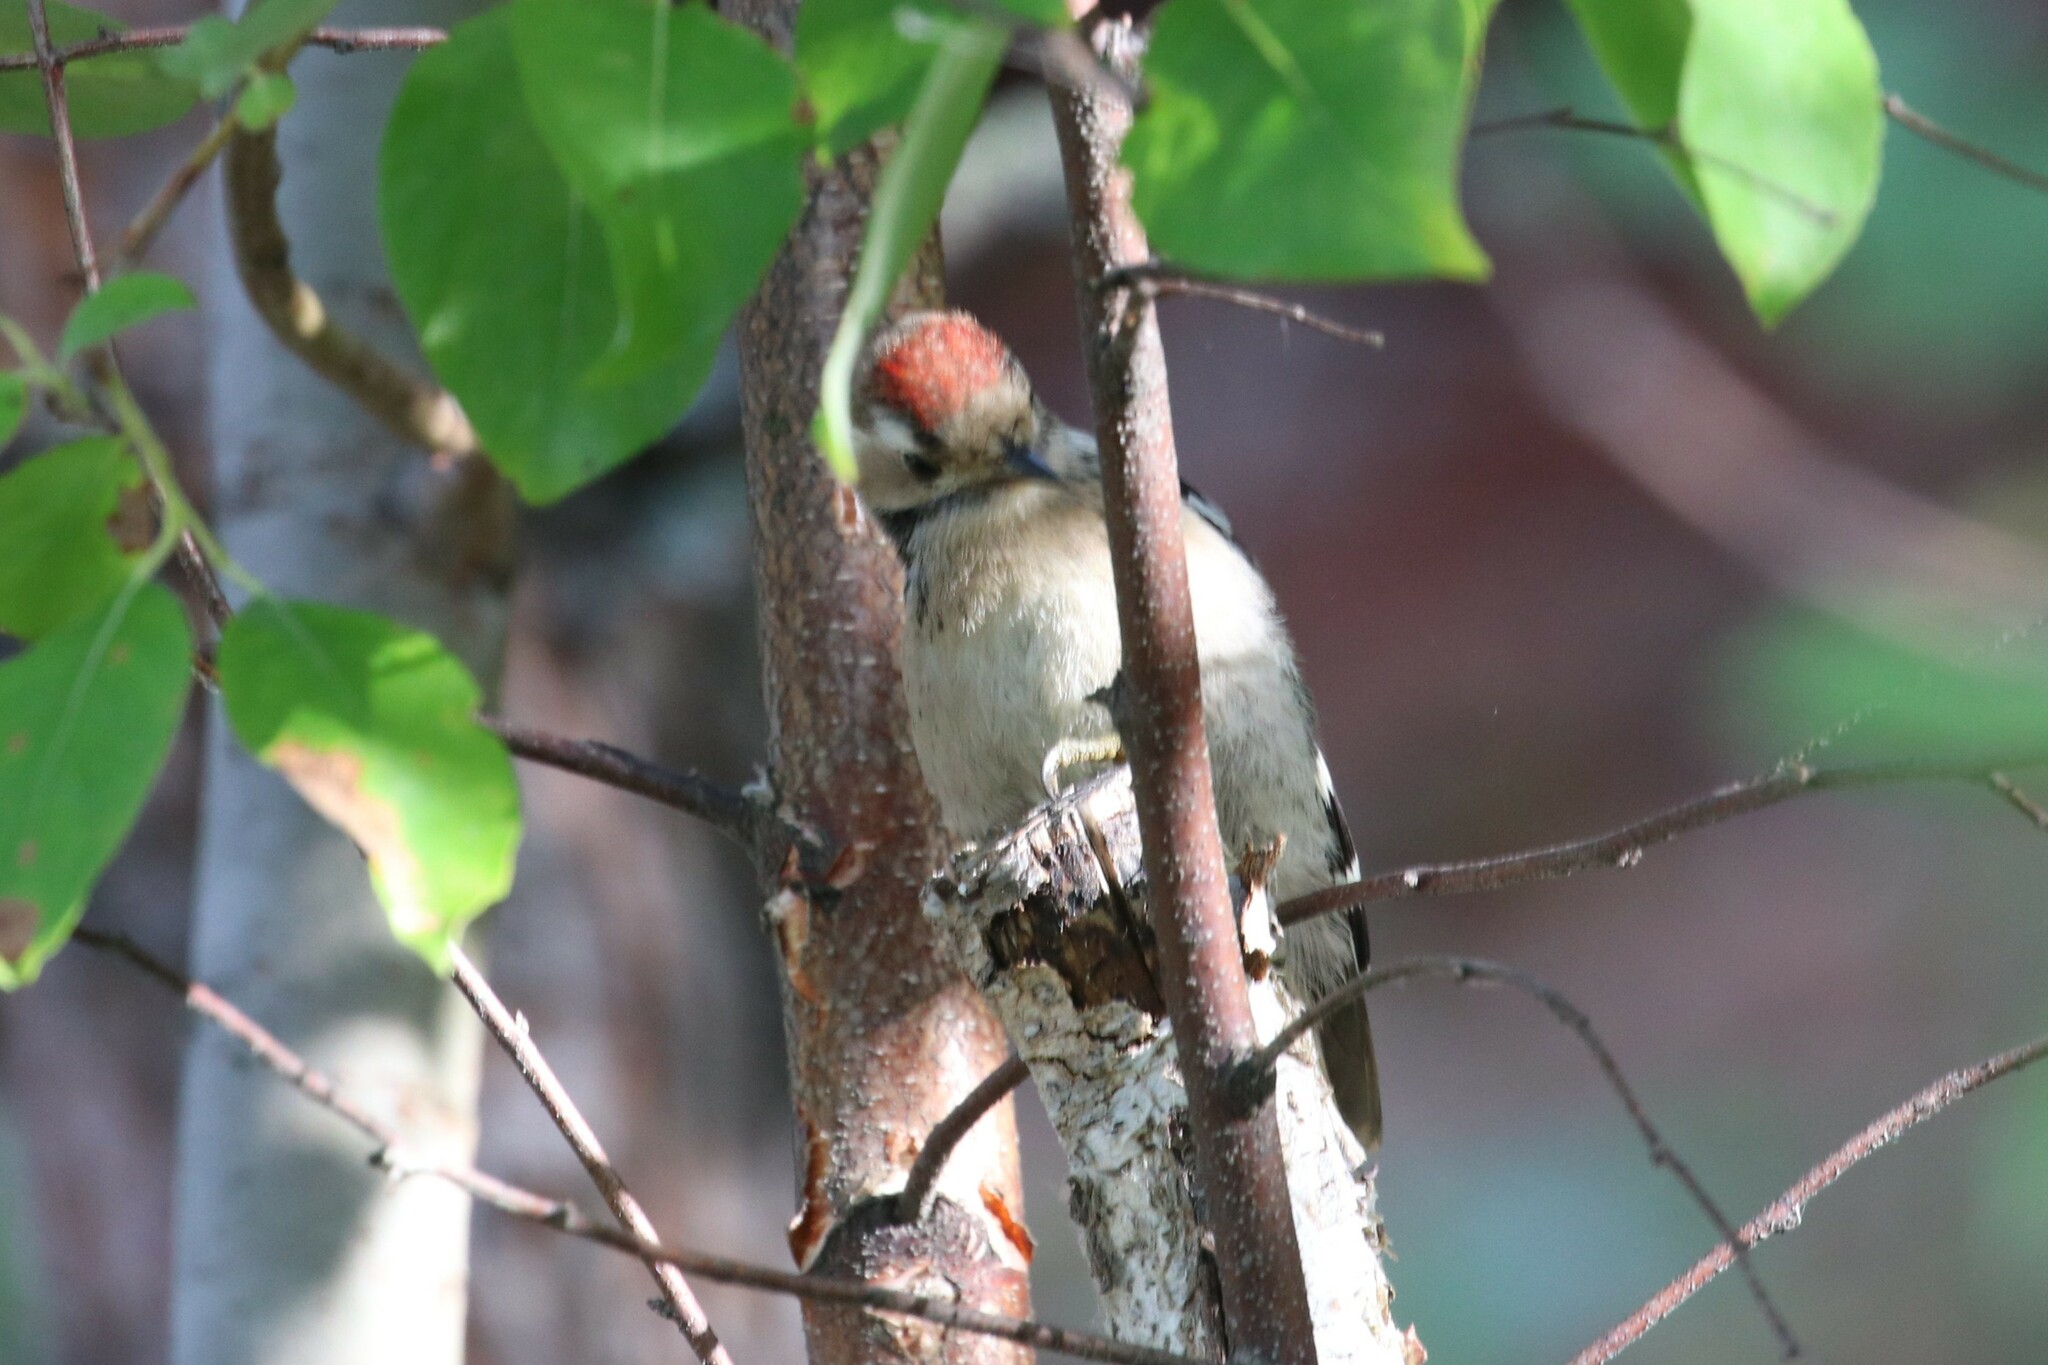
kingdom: Animalia
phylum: Chordata
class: Aves
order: Piciformes
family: Picidae
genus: Dryobates
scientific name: Dryobates minor
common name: Lesser spotted woodpecker
